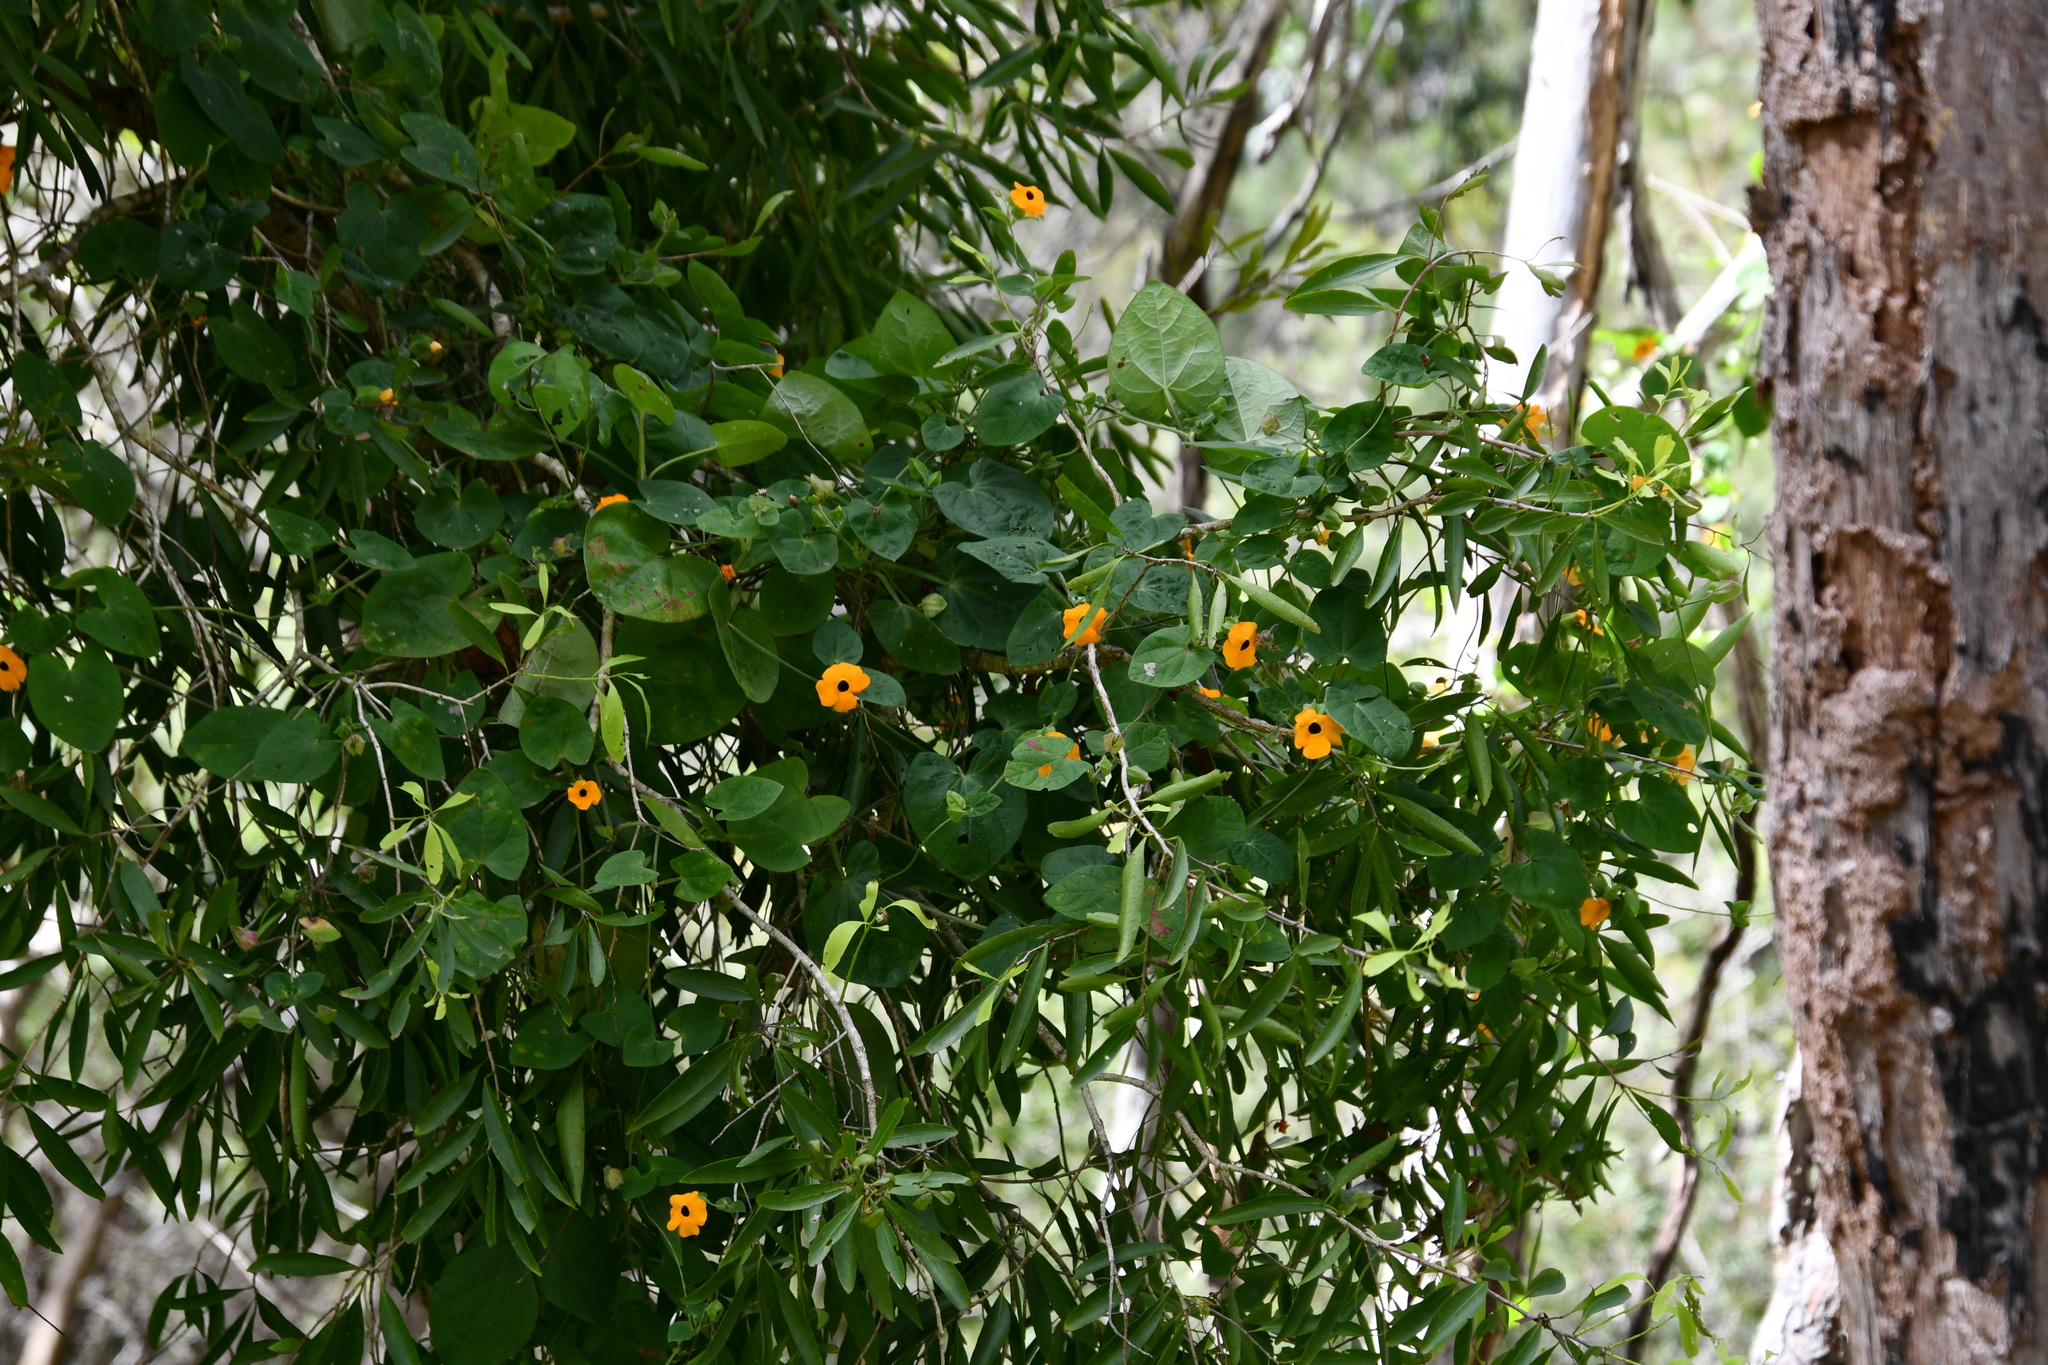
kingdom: Plantae
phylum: Tracheophyta
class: Magnoliopsida
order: Lamiales
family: Acanthaceae
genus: Thunbergia
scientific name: Thunbergia alata
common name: Blackeyed susan vine
